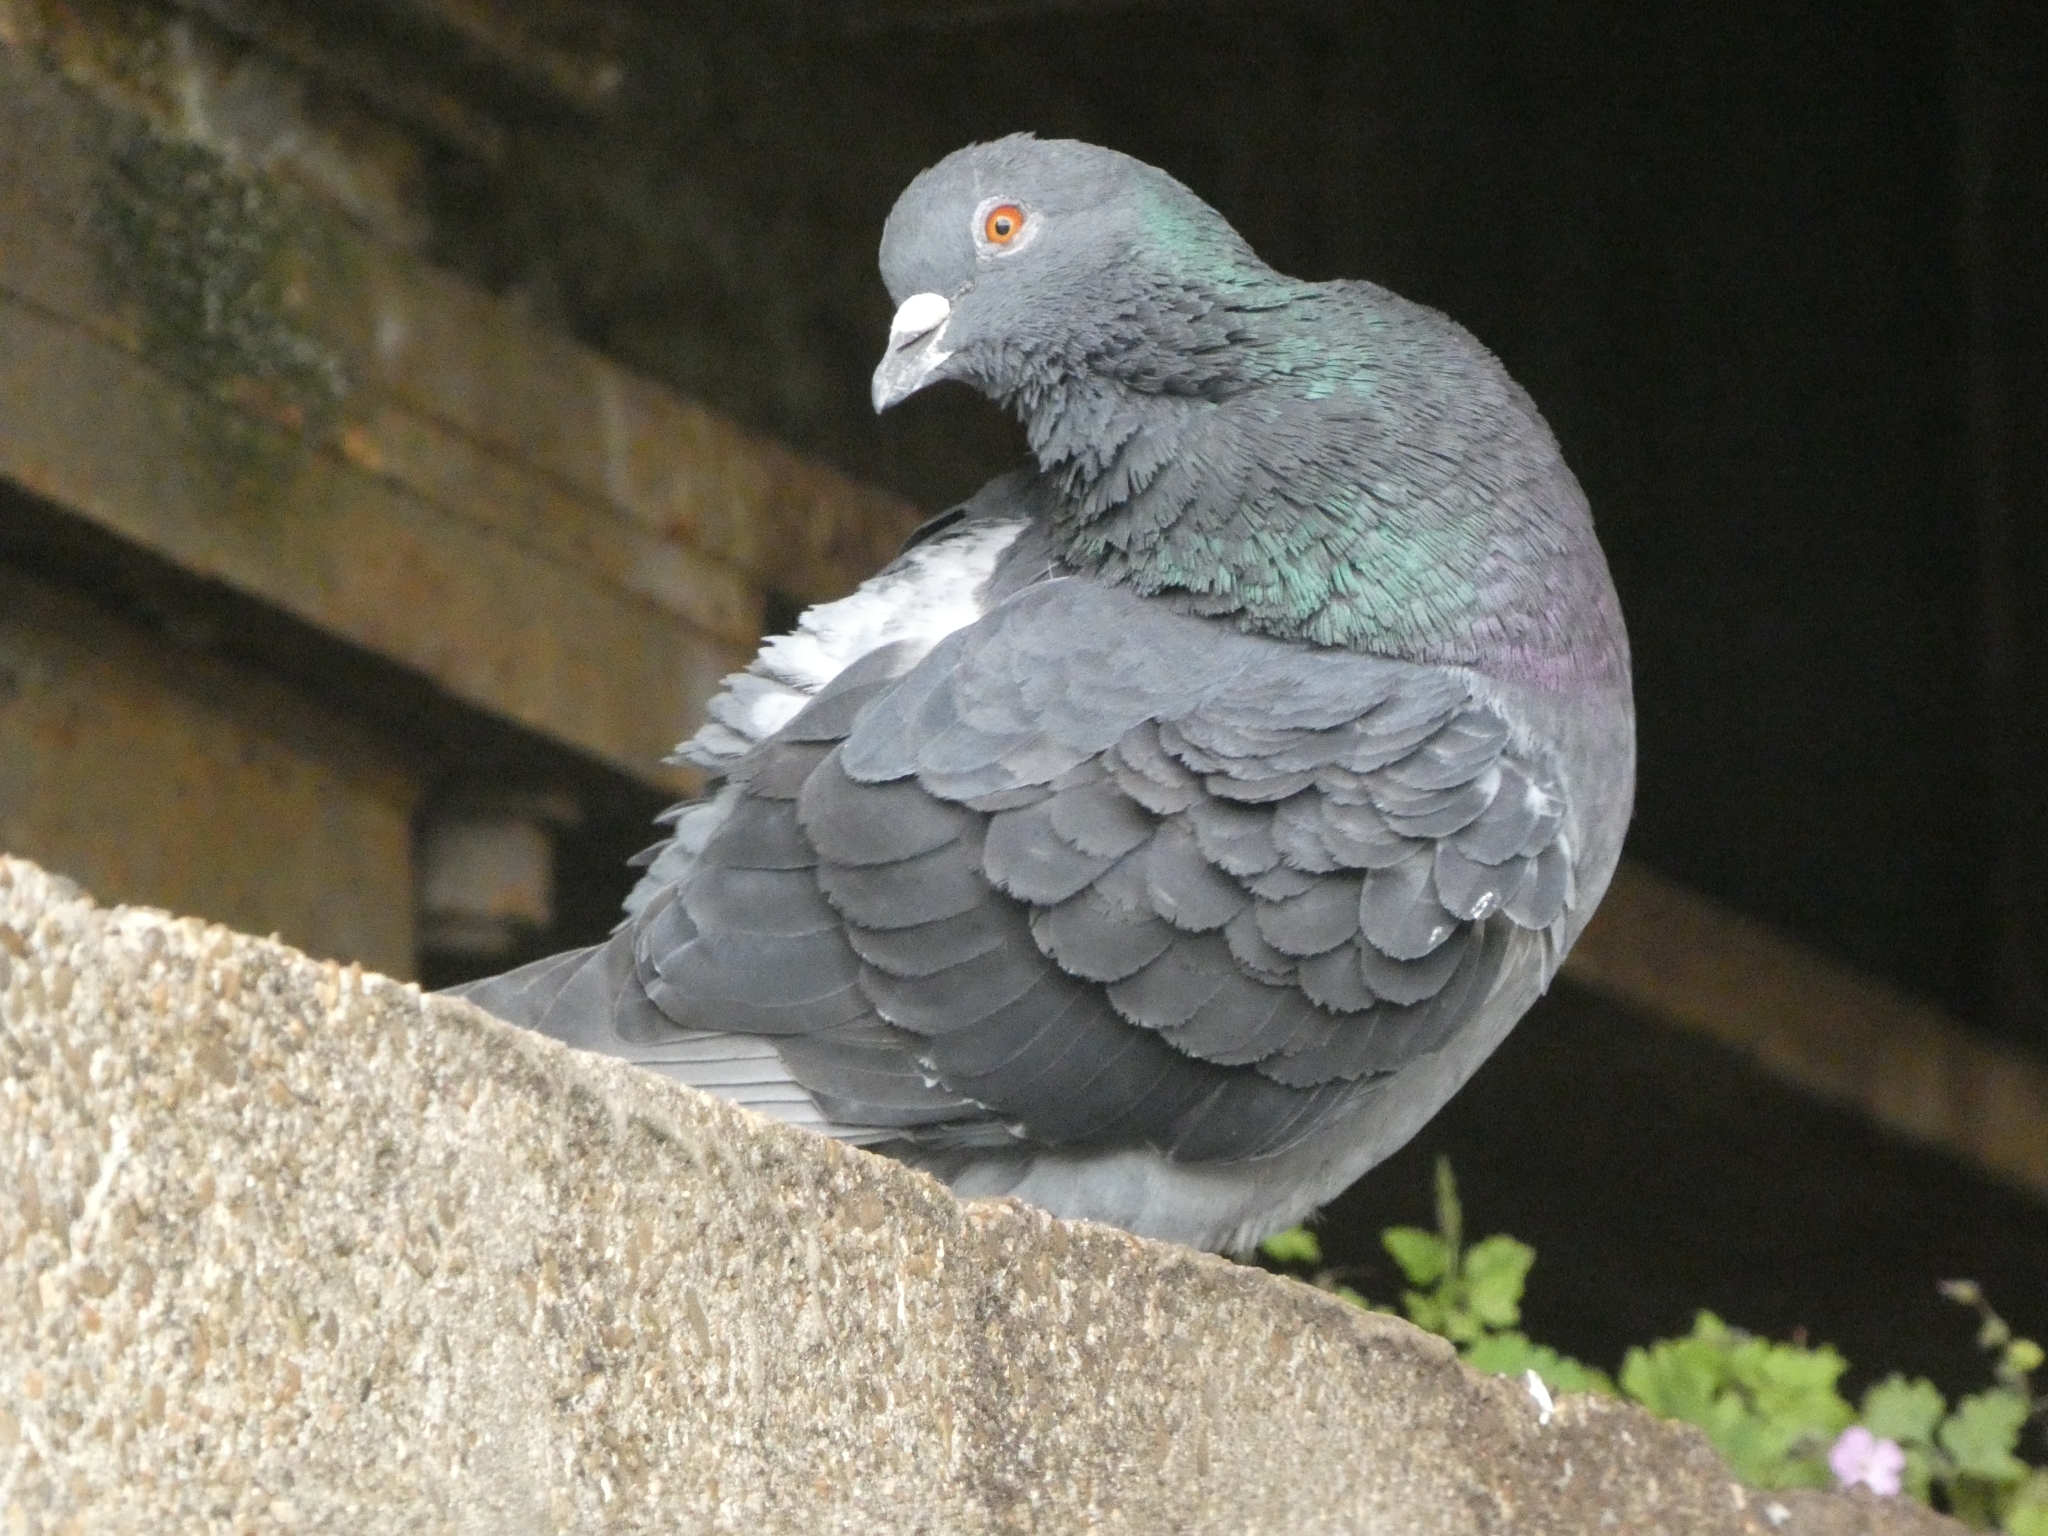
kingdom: Animalia
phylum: Chordata
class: Aves
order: Columbiformes
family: Columbidae
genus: Columba
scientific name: Columba livia
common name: Rock pigeon
